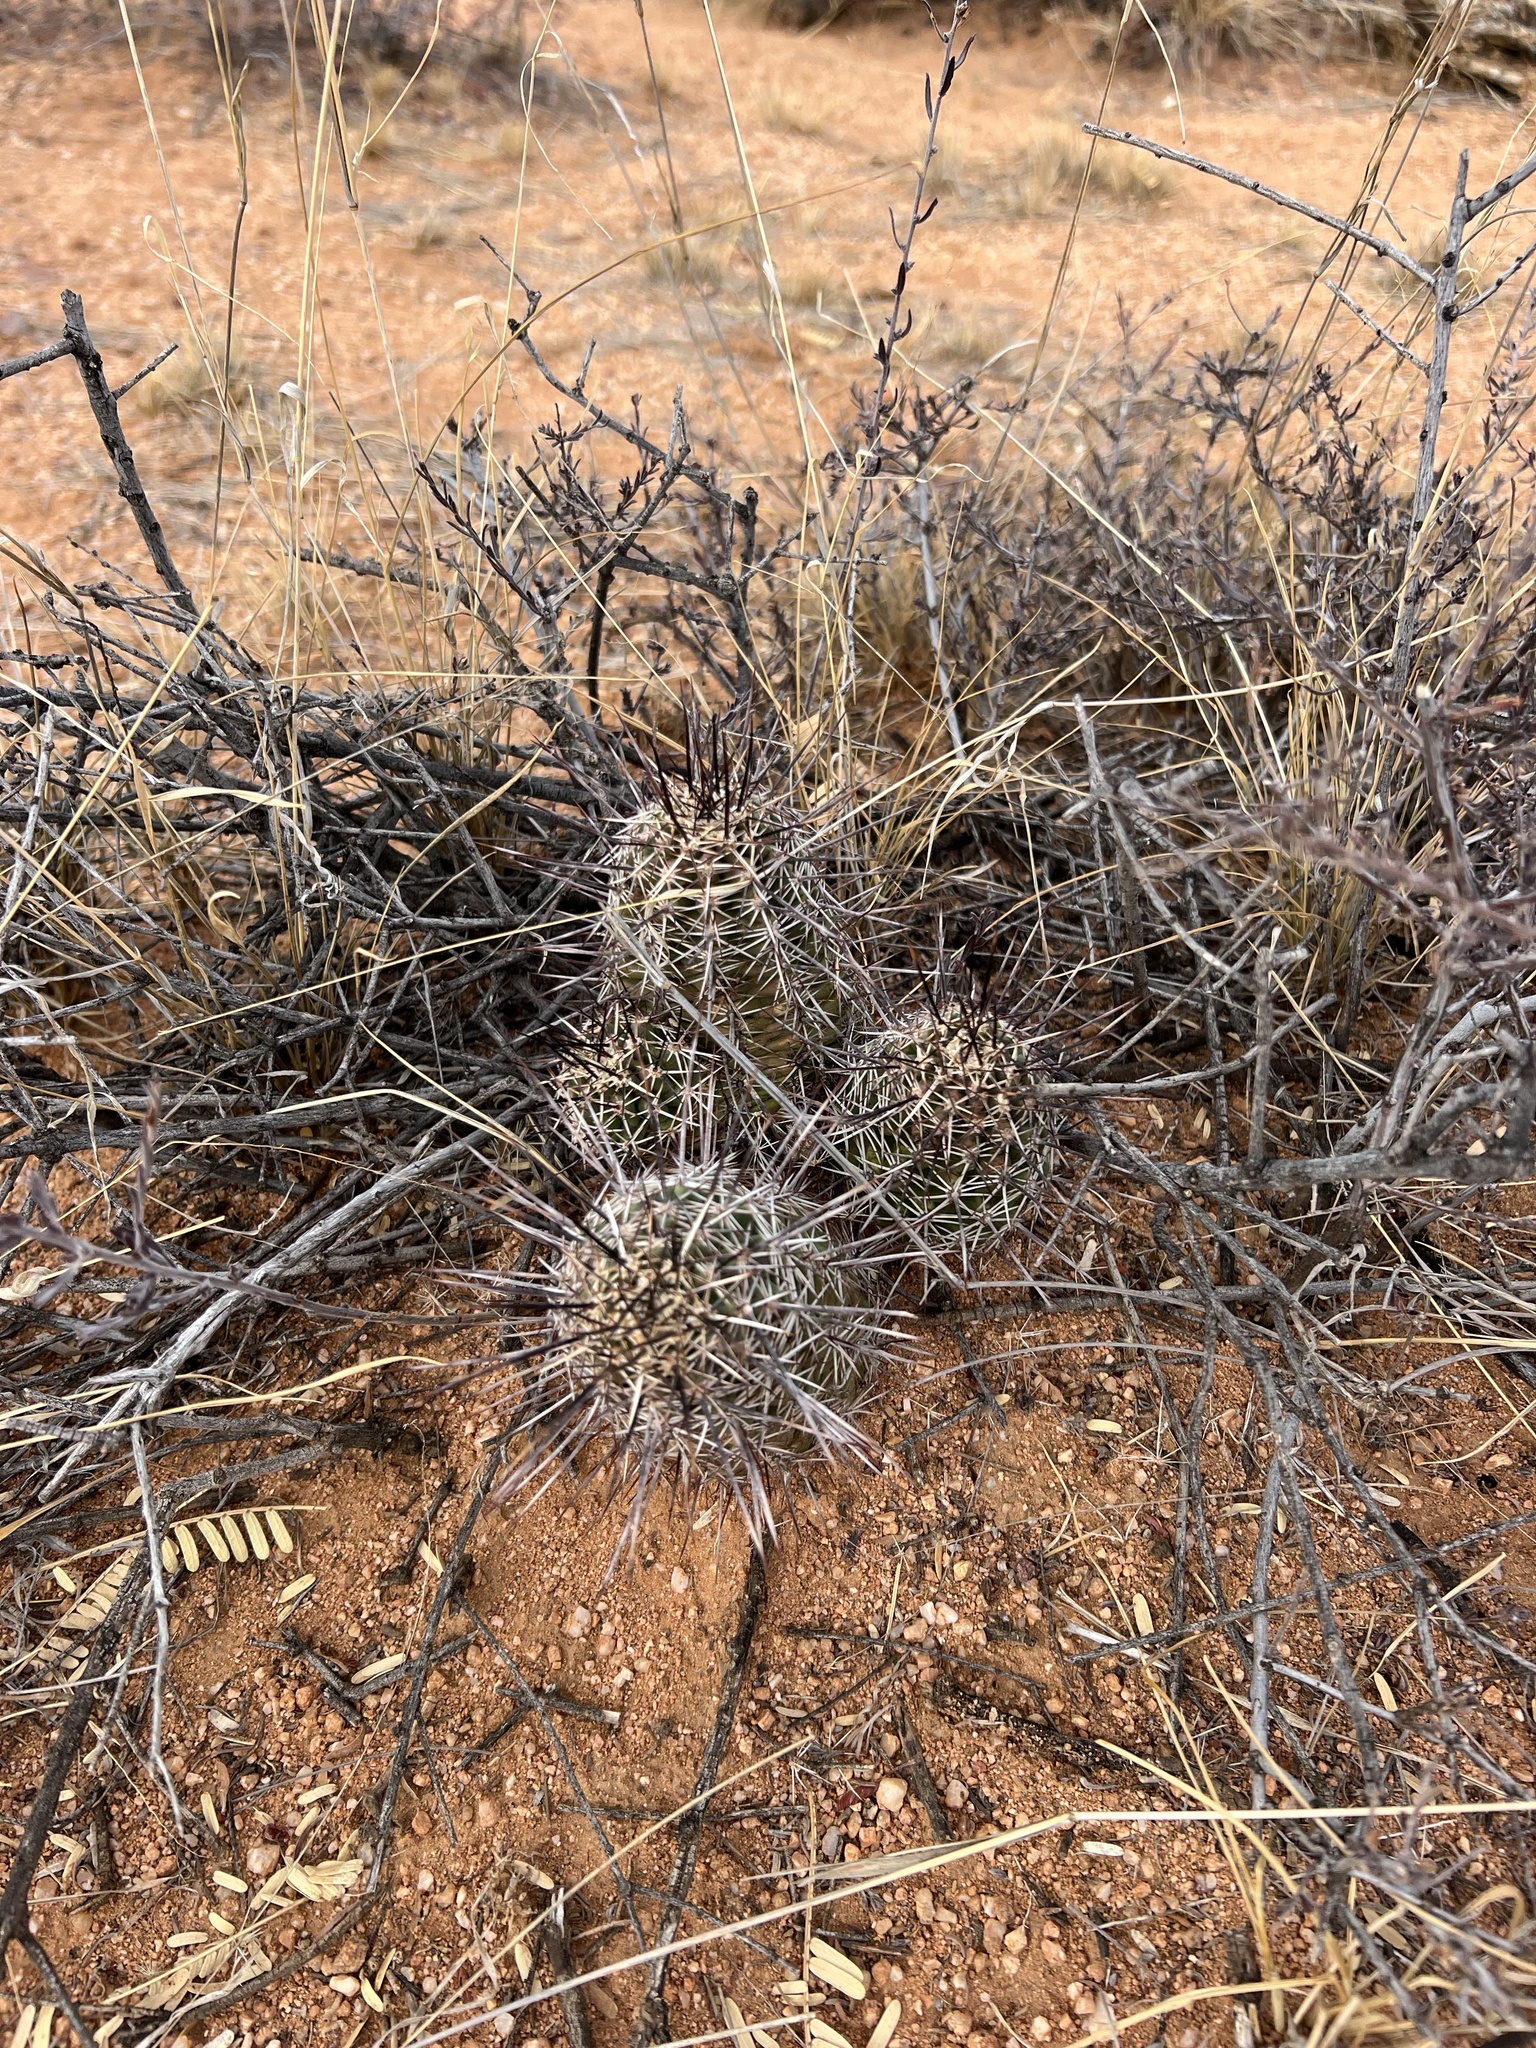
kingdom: Plantae
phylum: Tracheophyta
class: Magnoliopsida
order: Caryophyllales
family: Cactaceae
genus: Echinocereus
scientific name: Echinocereus fasciculatus
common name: Bundle hedgehog
